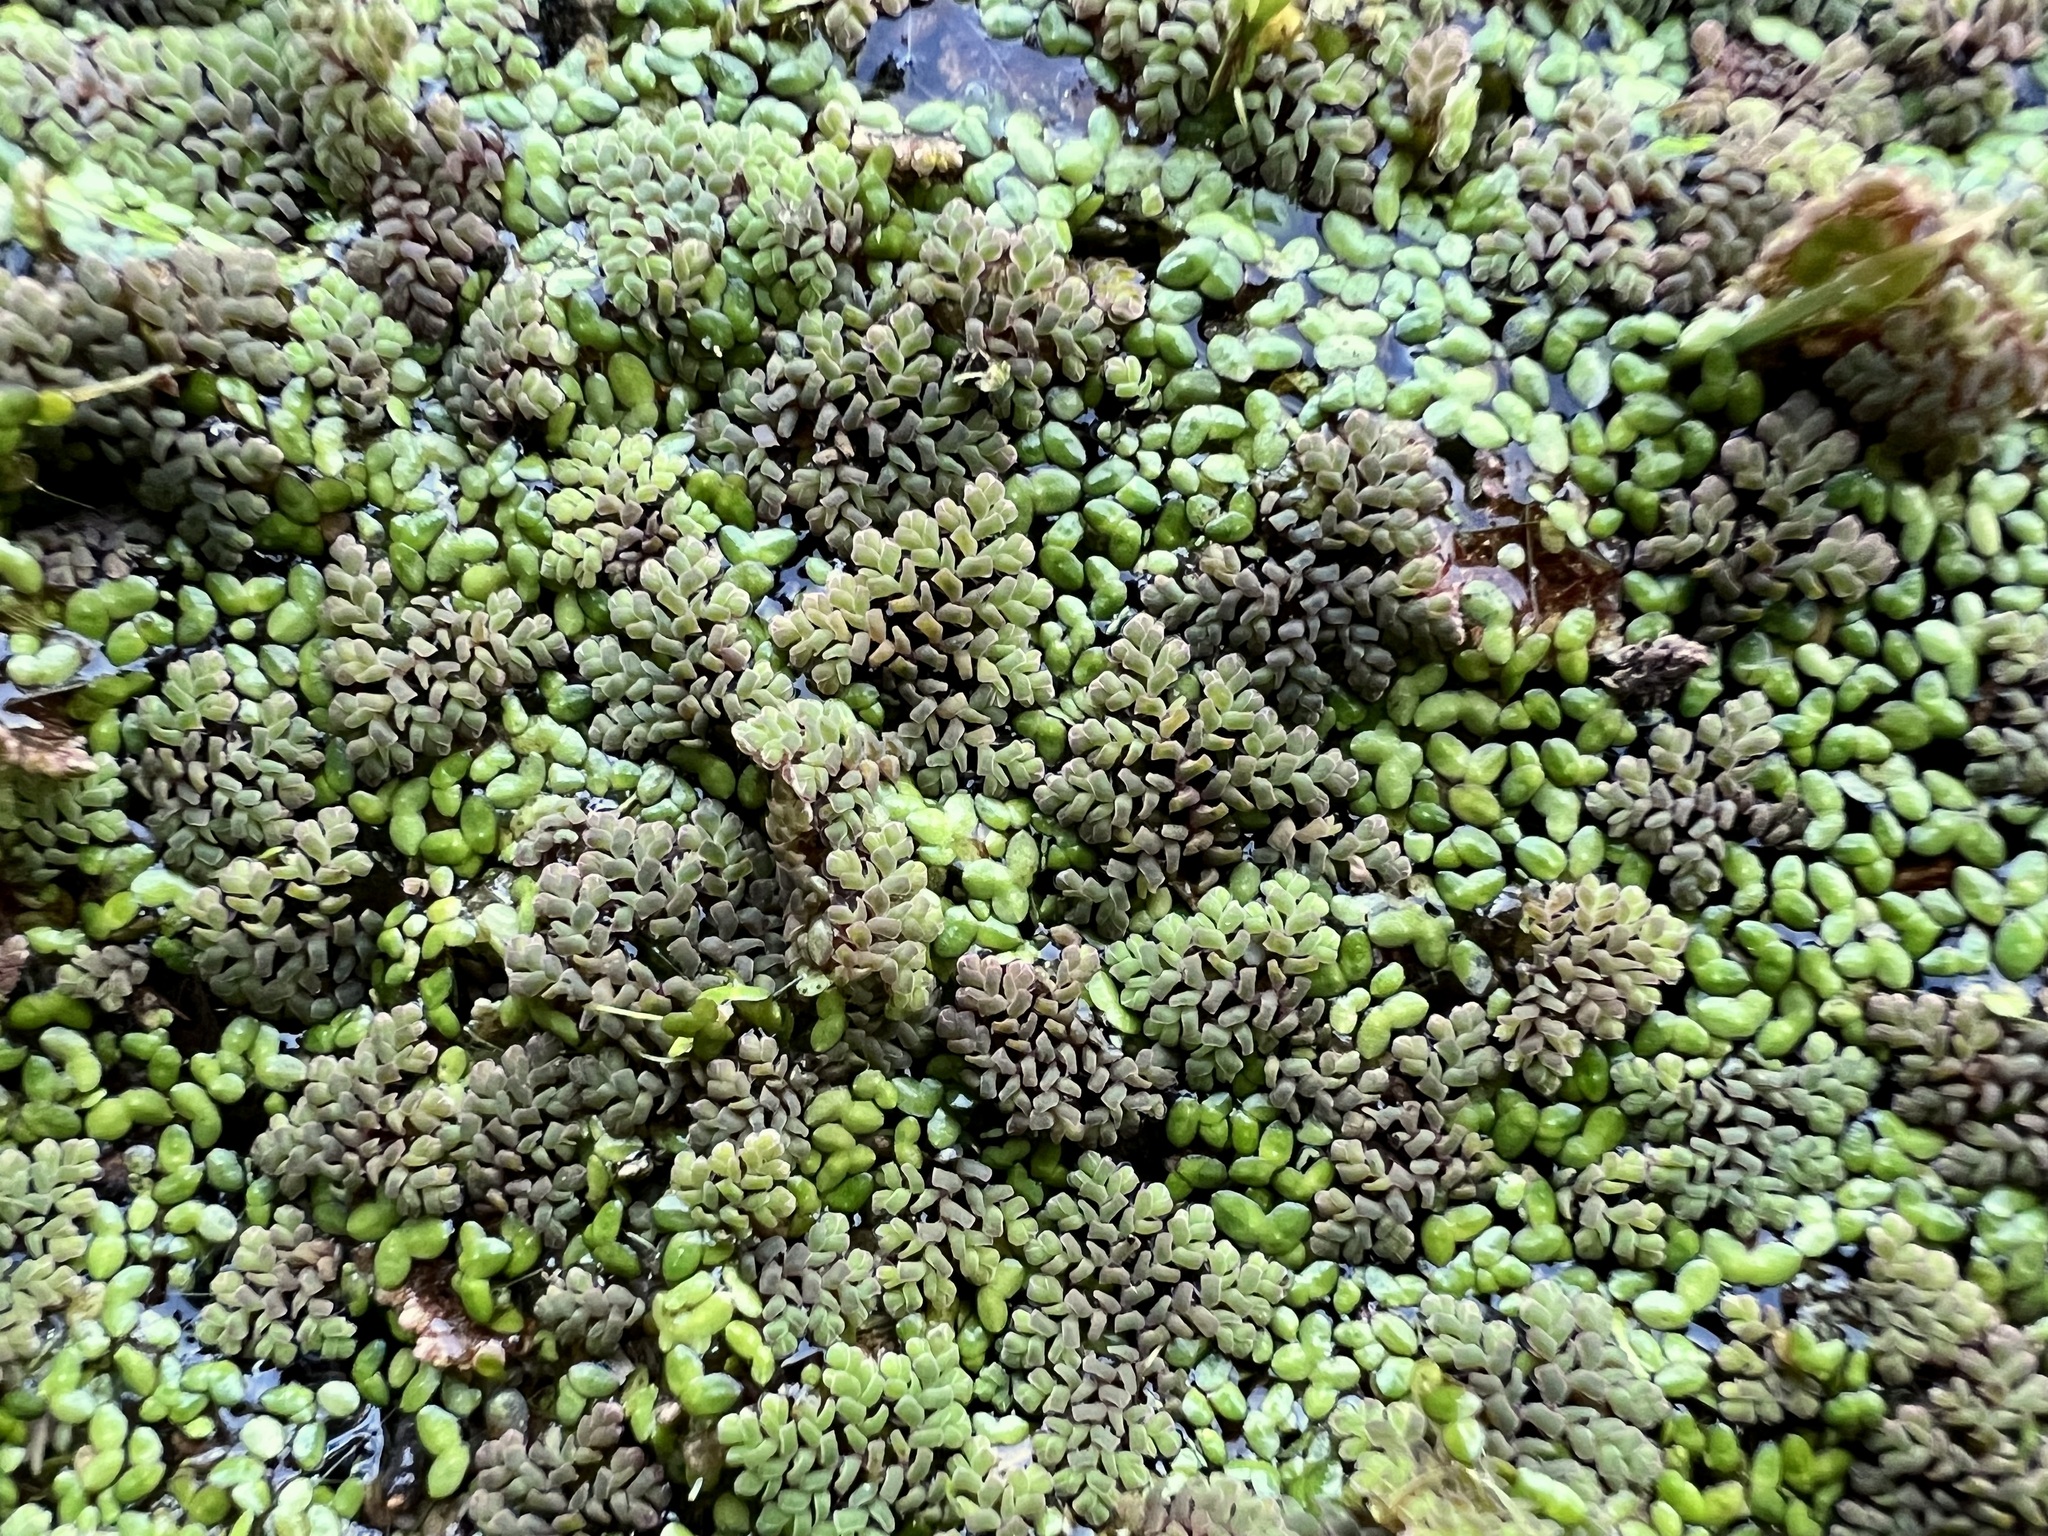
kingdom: Plantae
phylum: Tracheophyta
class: Polypodiopsida
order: Salviniales
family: Salviniaceae
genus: Azolla
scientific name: Azolla pinnata
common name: Ferny azolla
